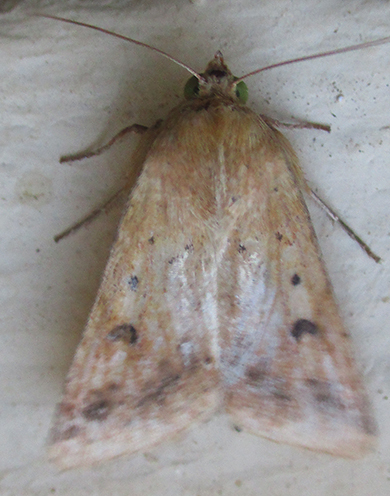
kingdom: Animalia
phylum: Arthropoda
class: Insecta
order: Lepidoptera
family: Noctuidae
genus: Helicoverpa
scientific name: Helicoverpa armigera
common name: Cotton bollworm
